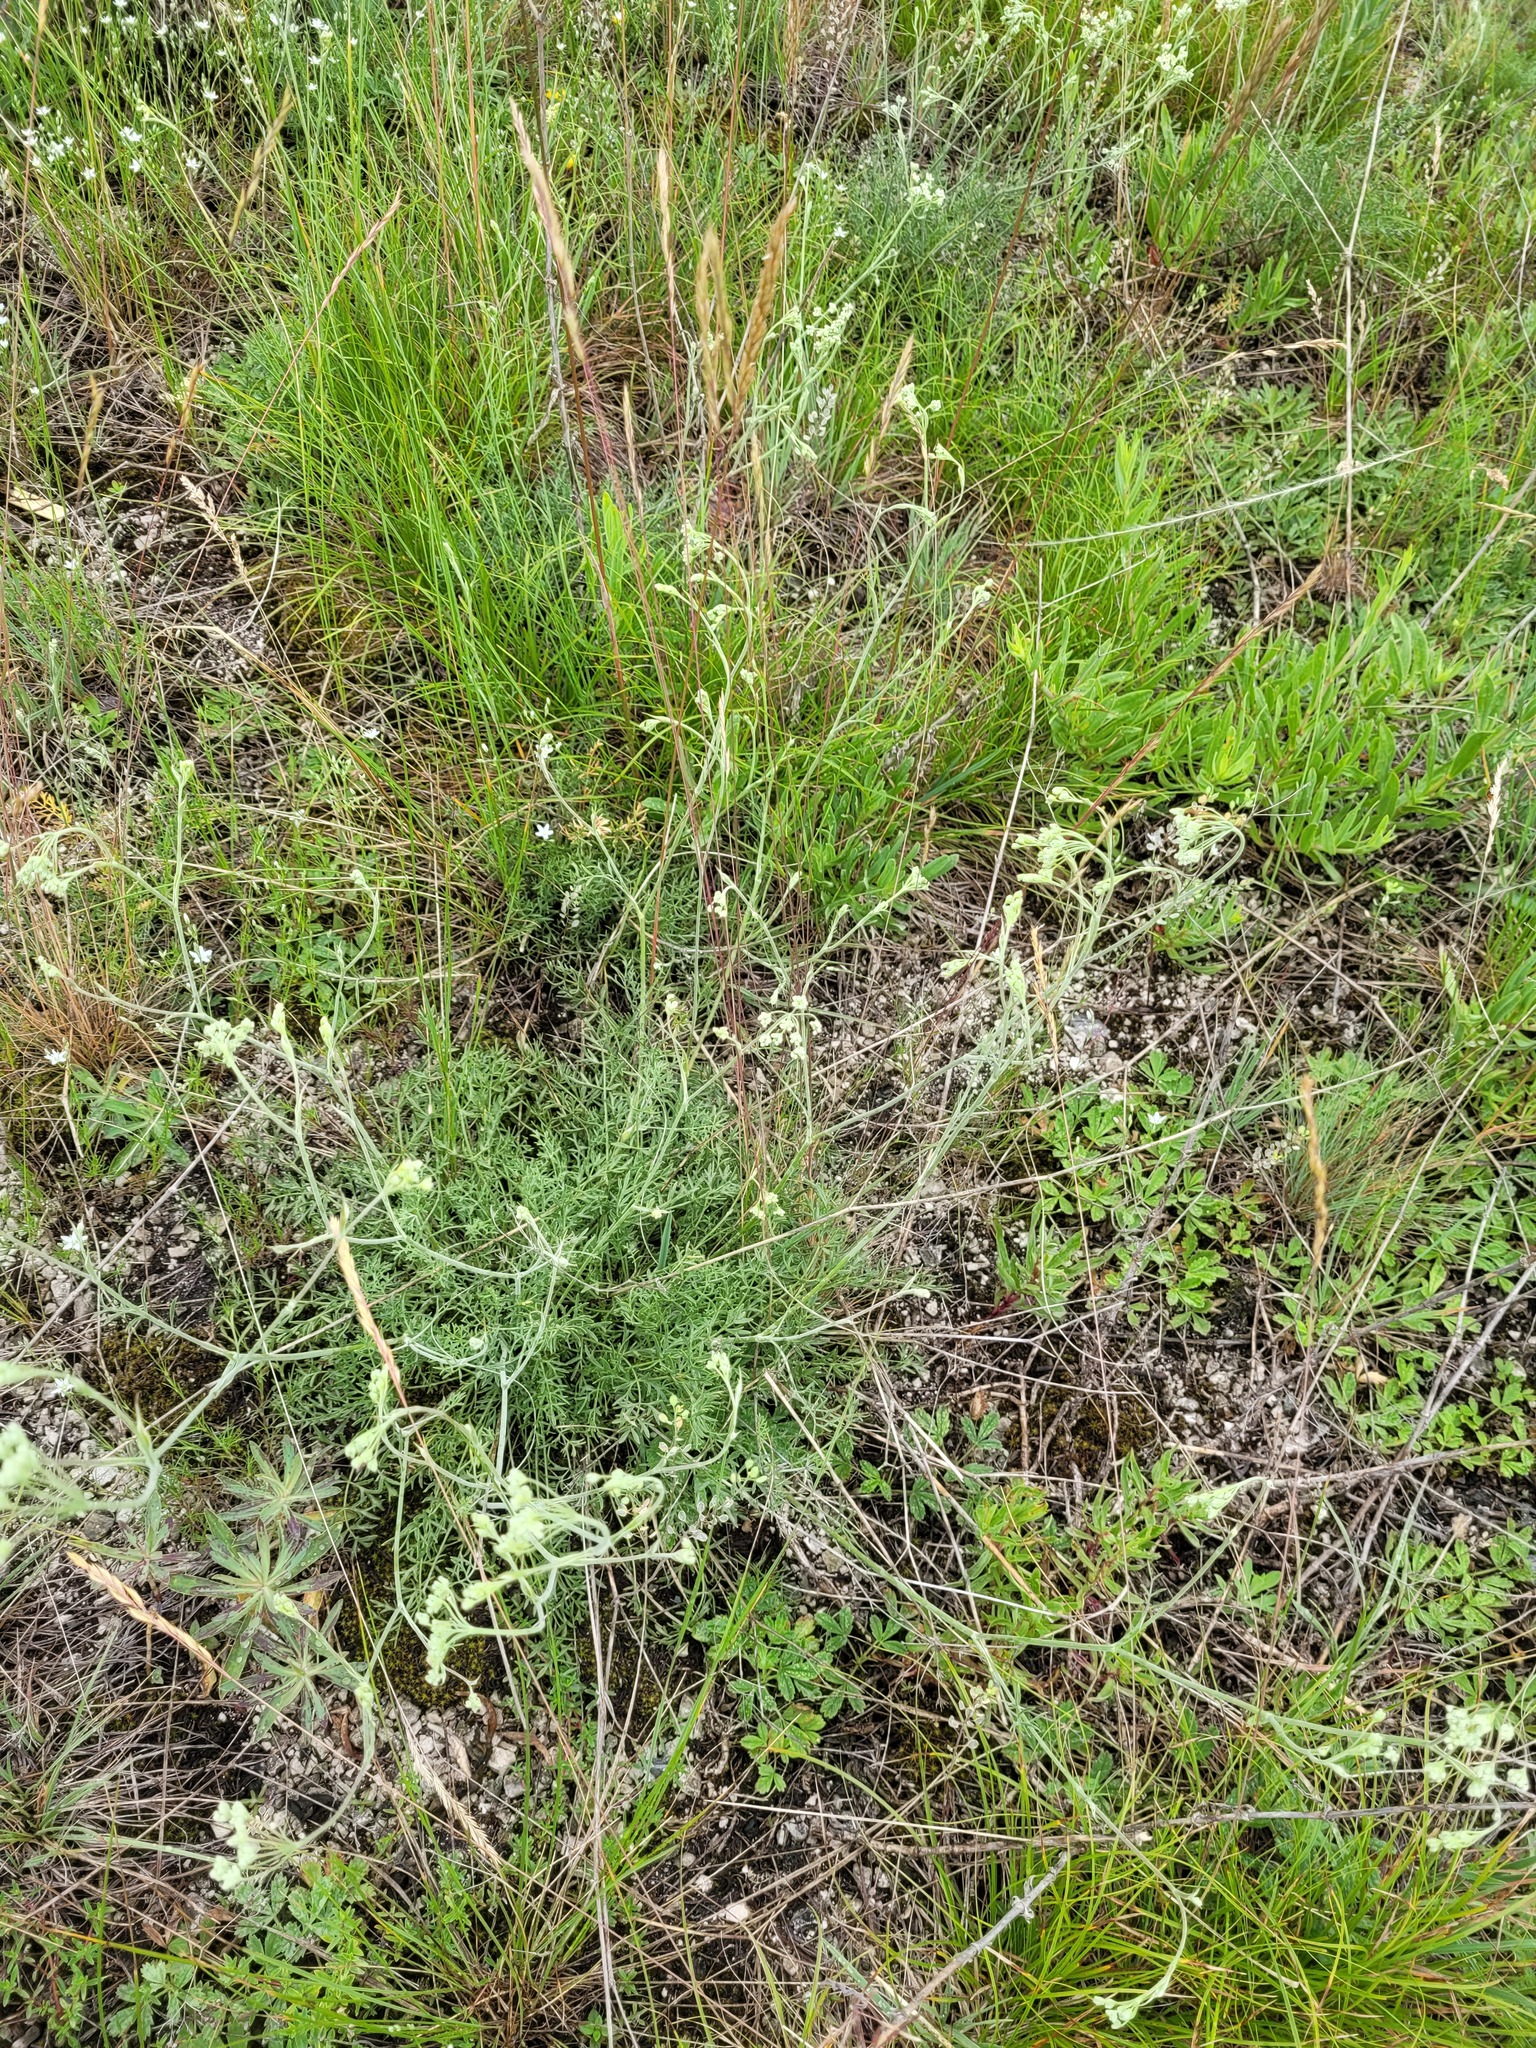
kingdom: Plantae
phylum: Tracheophyta
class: Magnoliopsida
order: Apiales
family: Apiaceae
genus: Pimpinella
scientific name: Pimpinella tragium
